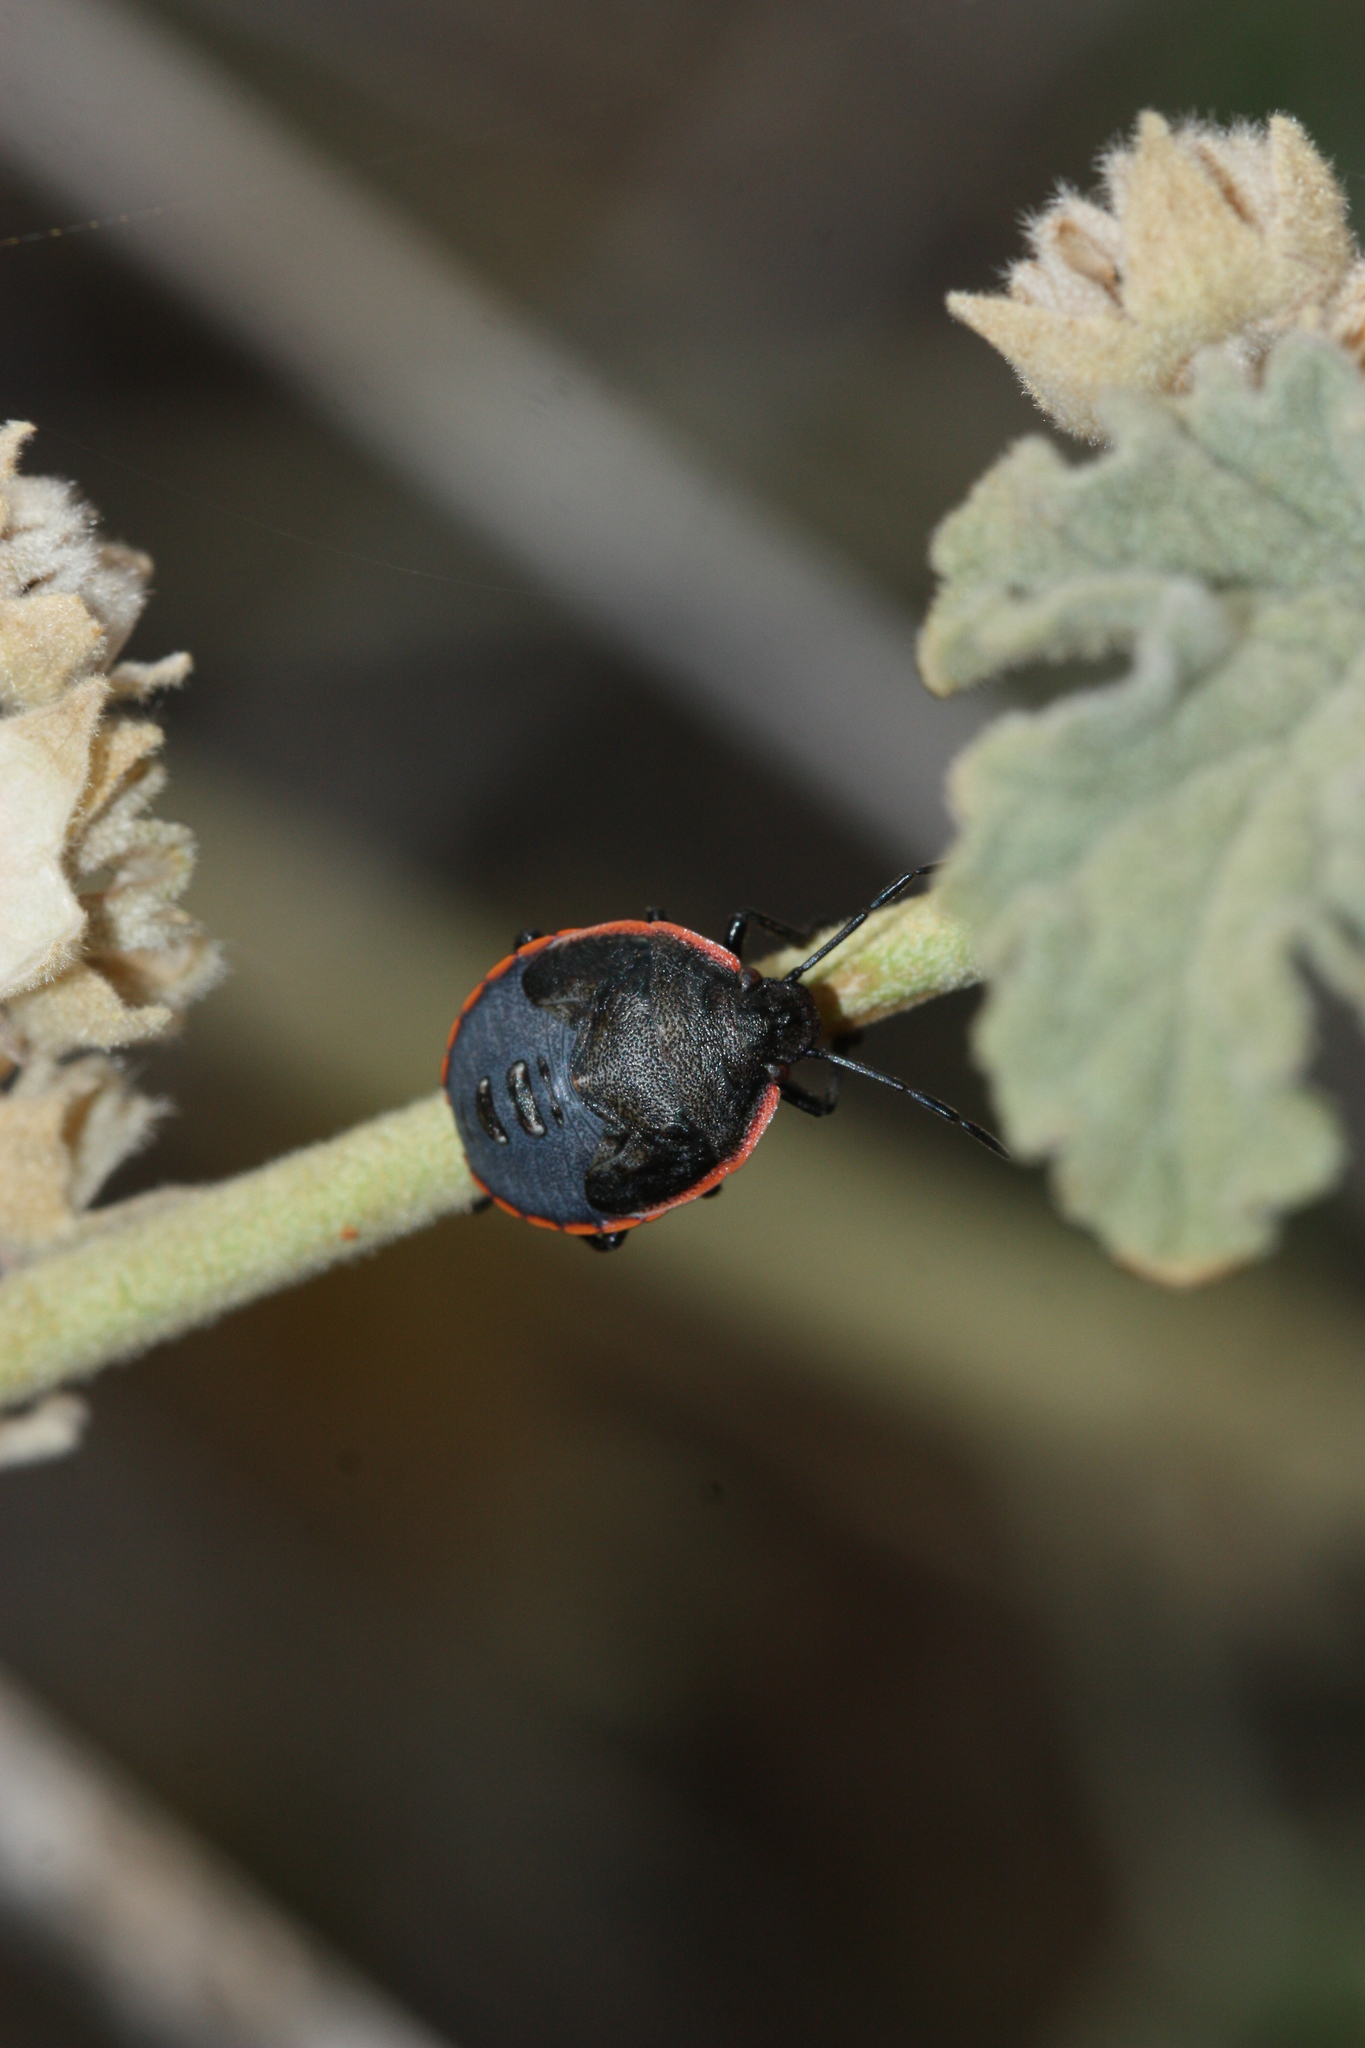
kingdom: Animalia
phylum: Arthropoda
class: Insecta
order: Hemiptera
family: Pentatomidae
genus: Chlorochroa
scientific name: Chlorochroa ligata
